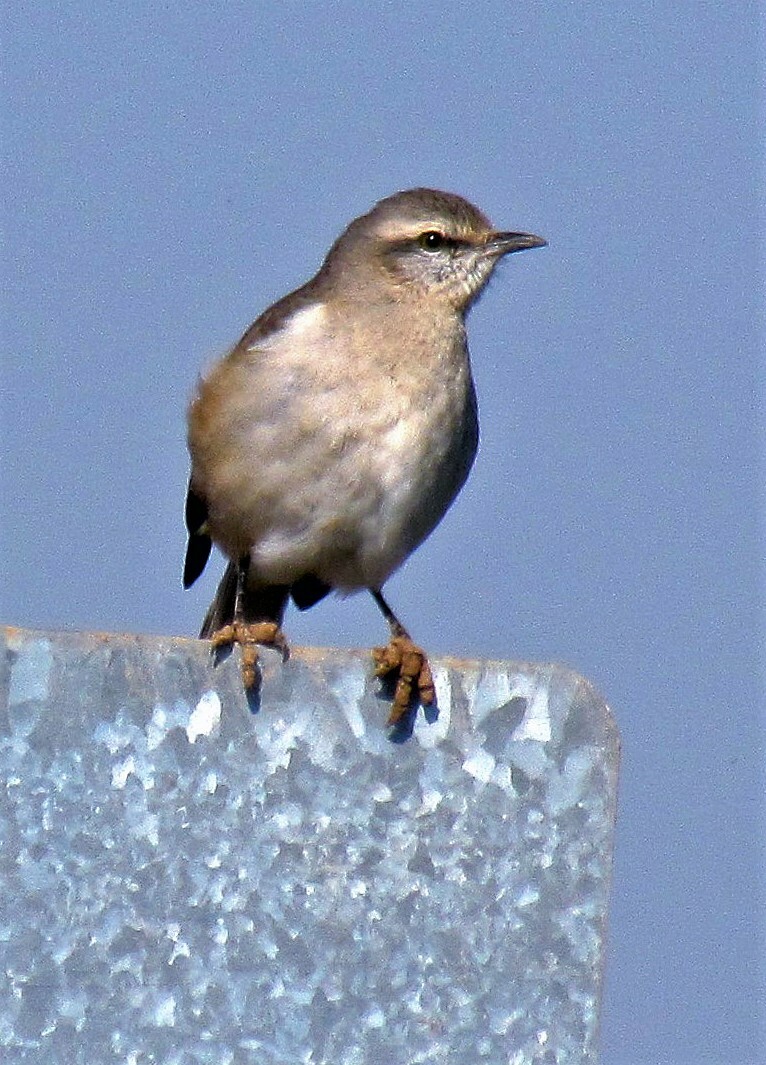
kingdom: Animalia
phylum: Chordata
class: Aves
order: Passeriformes
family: Mimidae
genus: Mimus
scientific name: Mimus triurus
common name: White-banded mockingbird
